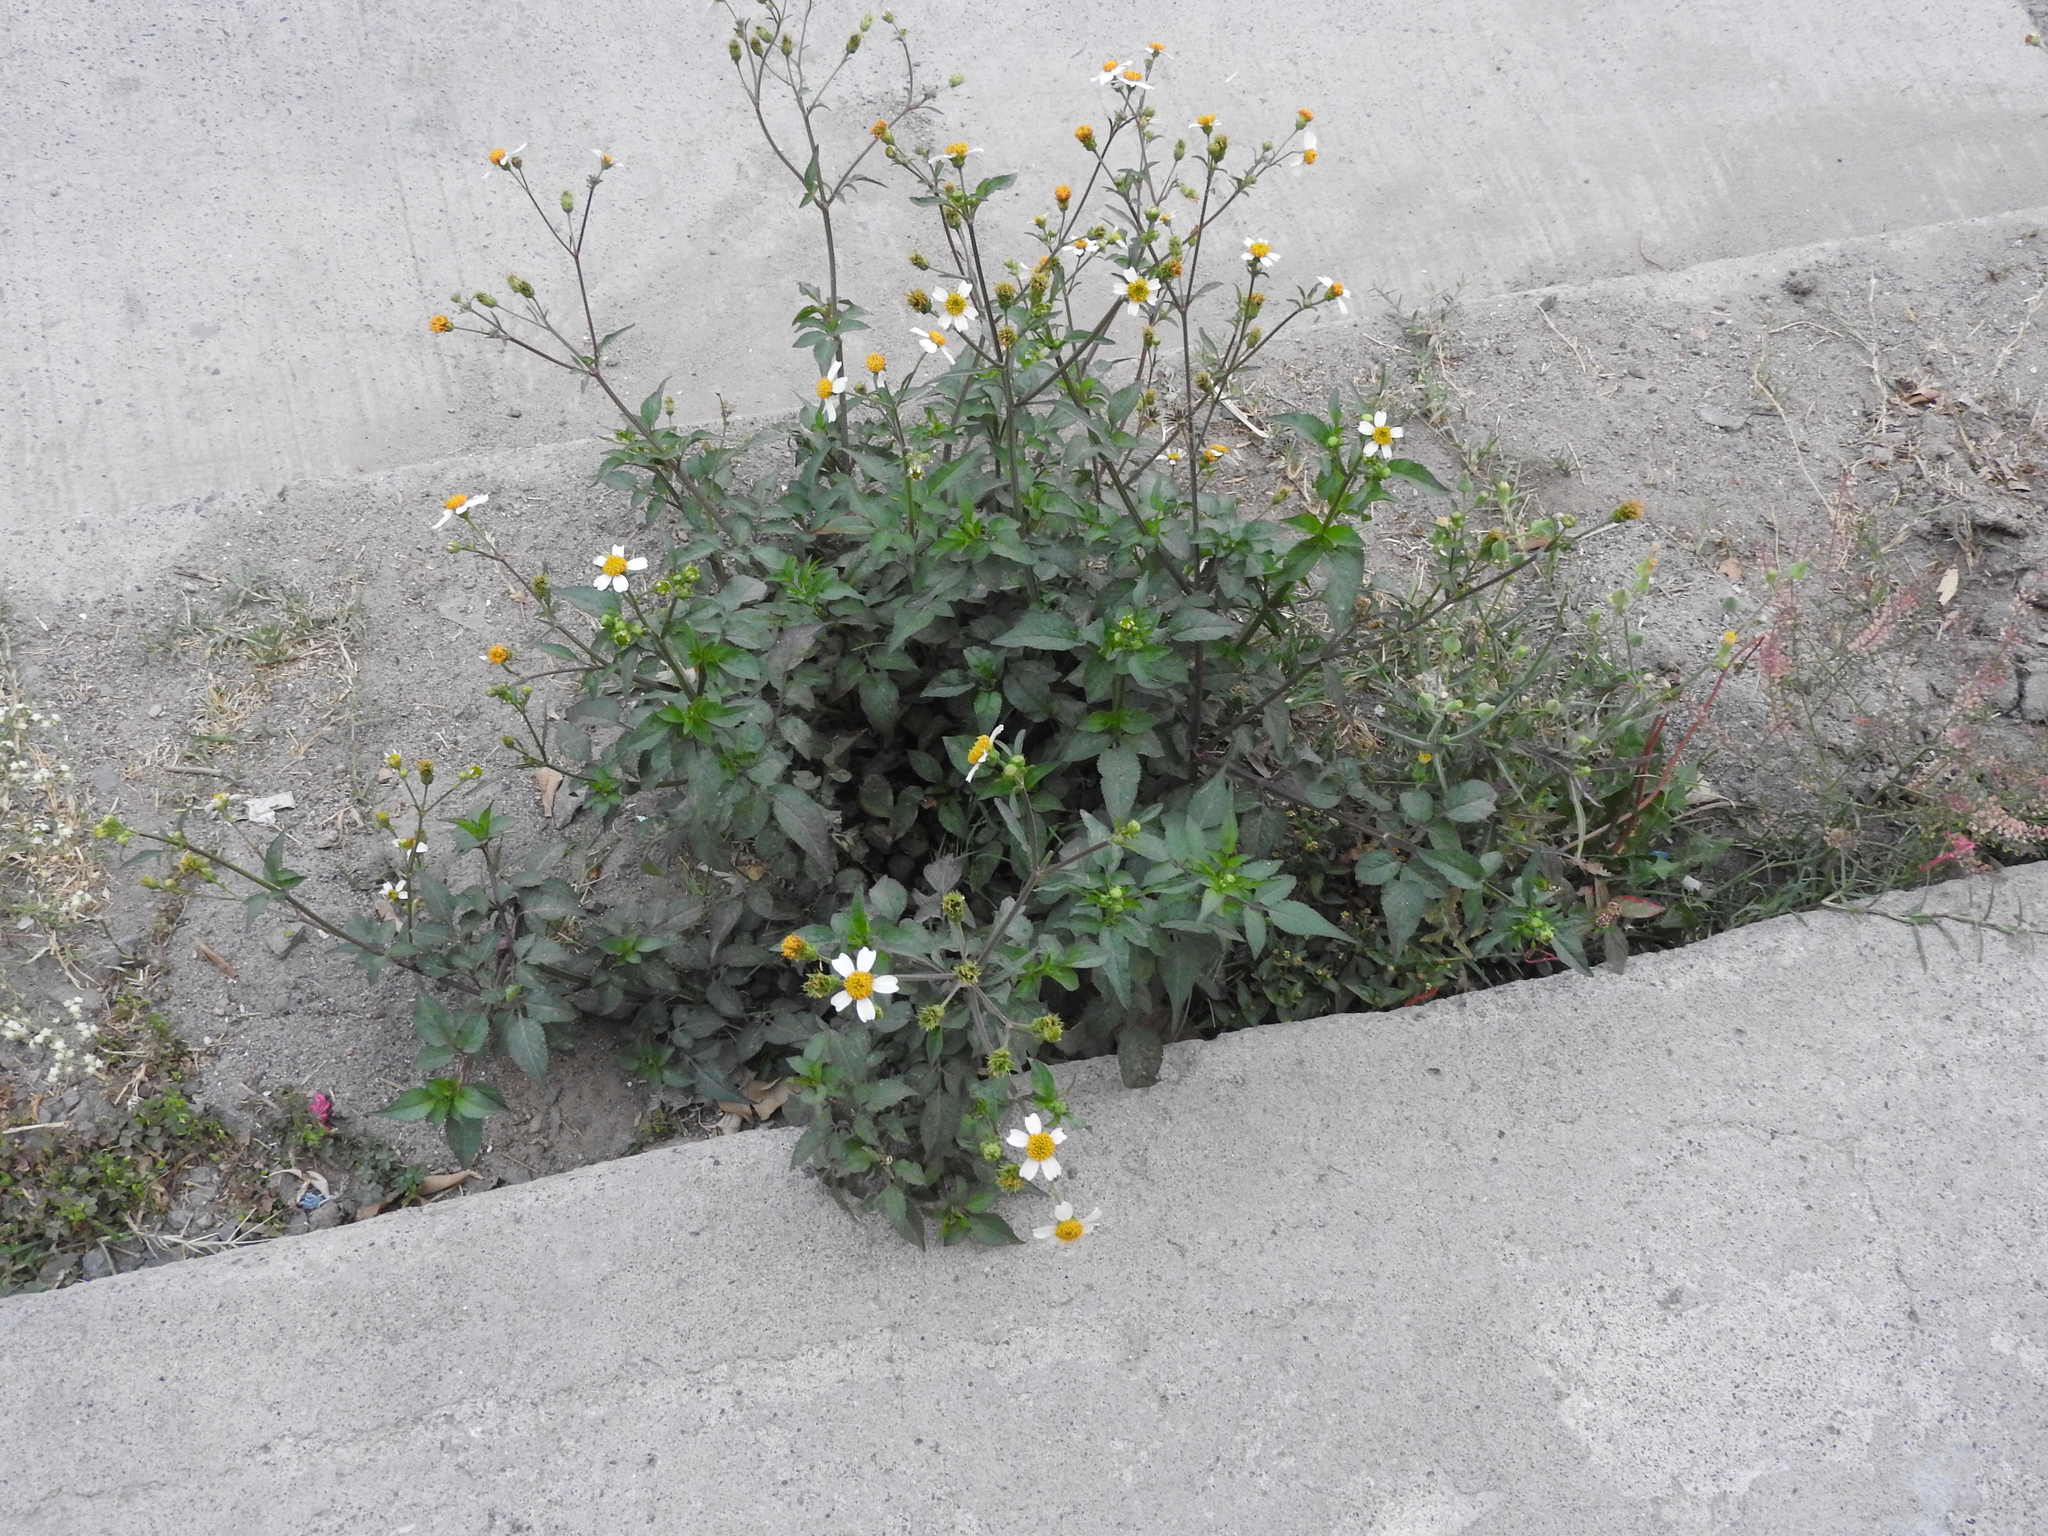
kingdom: Plantae
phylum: Tracheophyta
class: Magnoliopsida
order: Asterales
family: Asteraceae
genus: Bidens
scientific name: Bidens odorata
